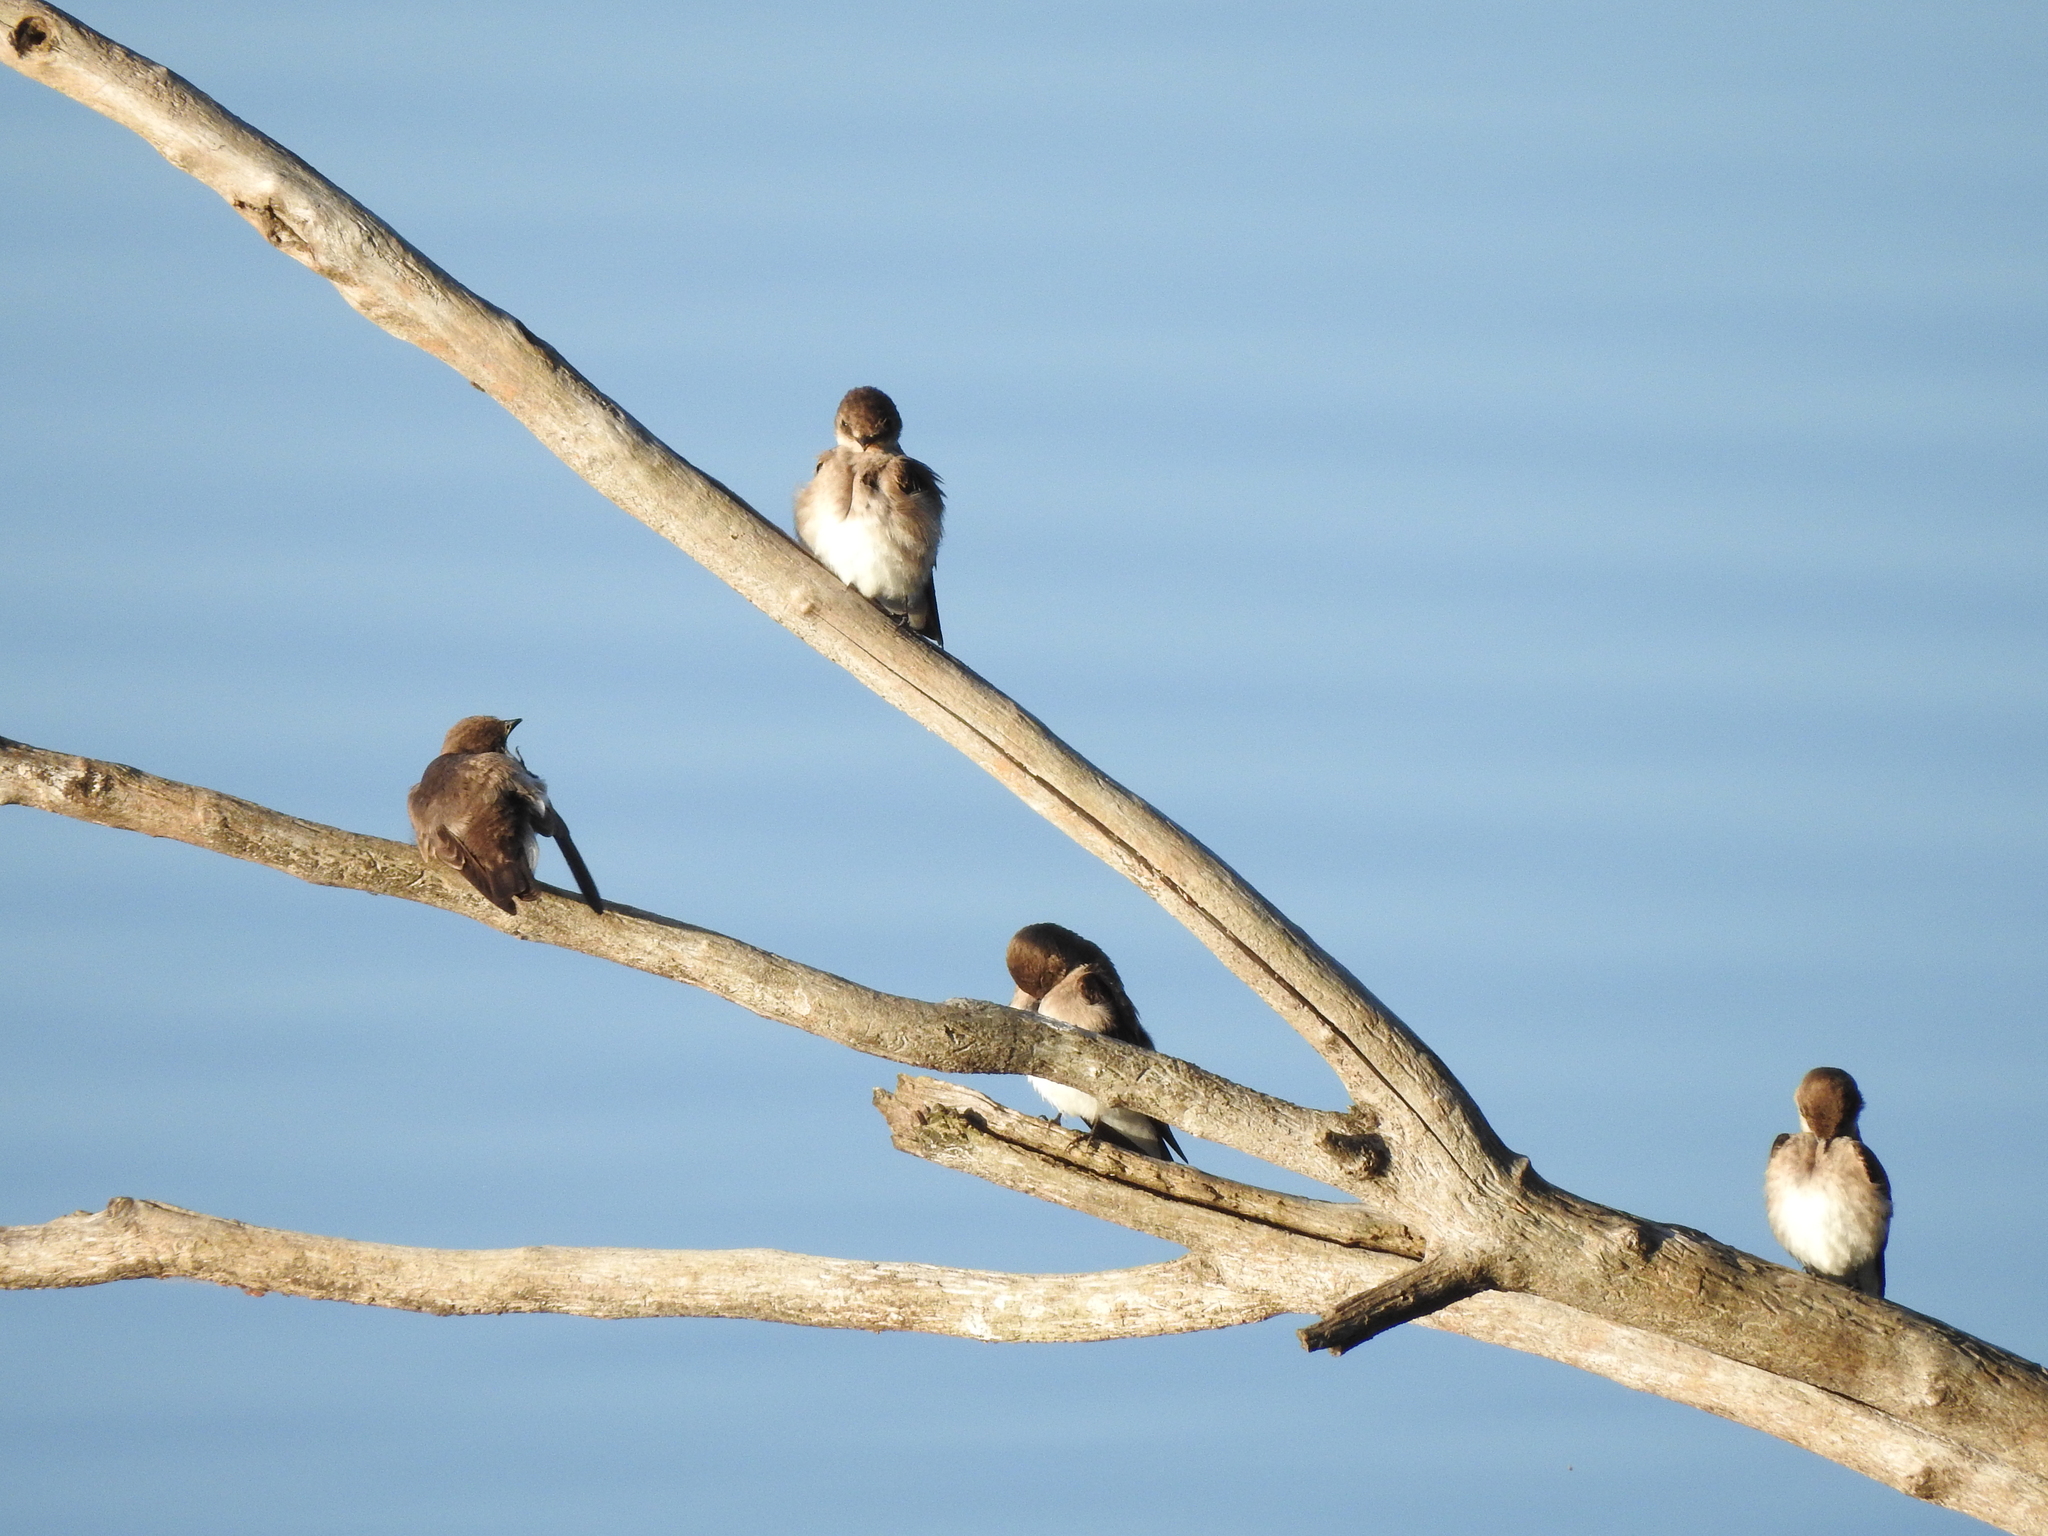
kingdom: Animalia
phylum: Chordata
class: Aves
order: Passeriformes
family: Hirundinidae
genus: Stelgidopteryx
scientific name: Stelgidopteryx serripennis
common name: Northern rough-winged swallow
